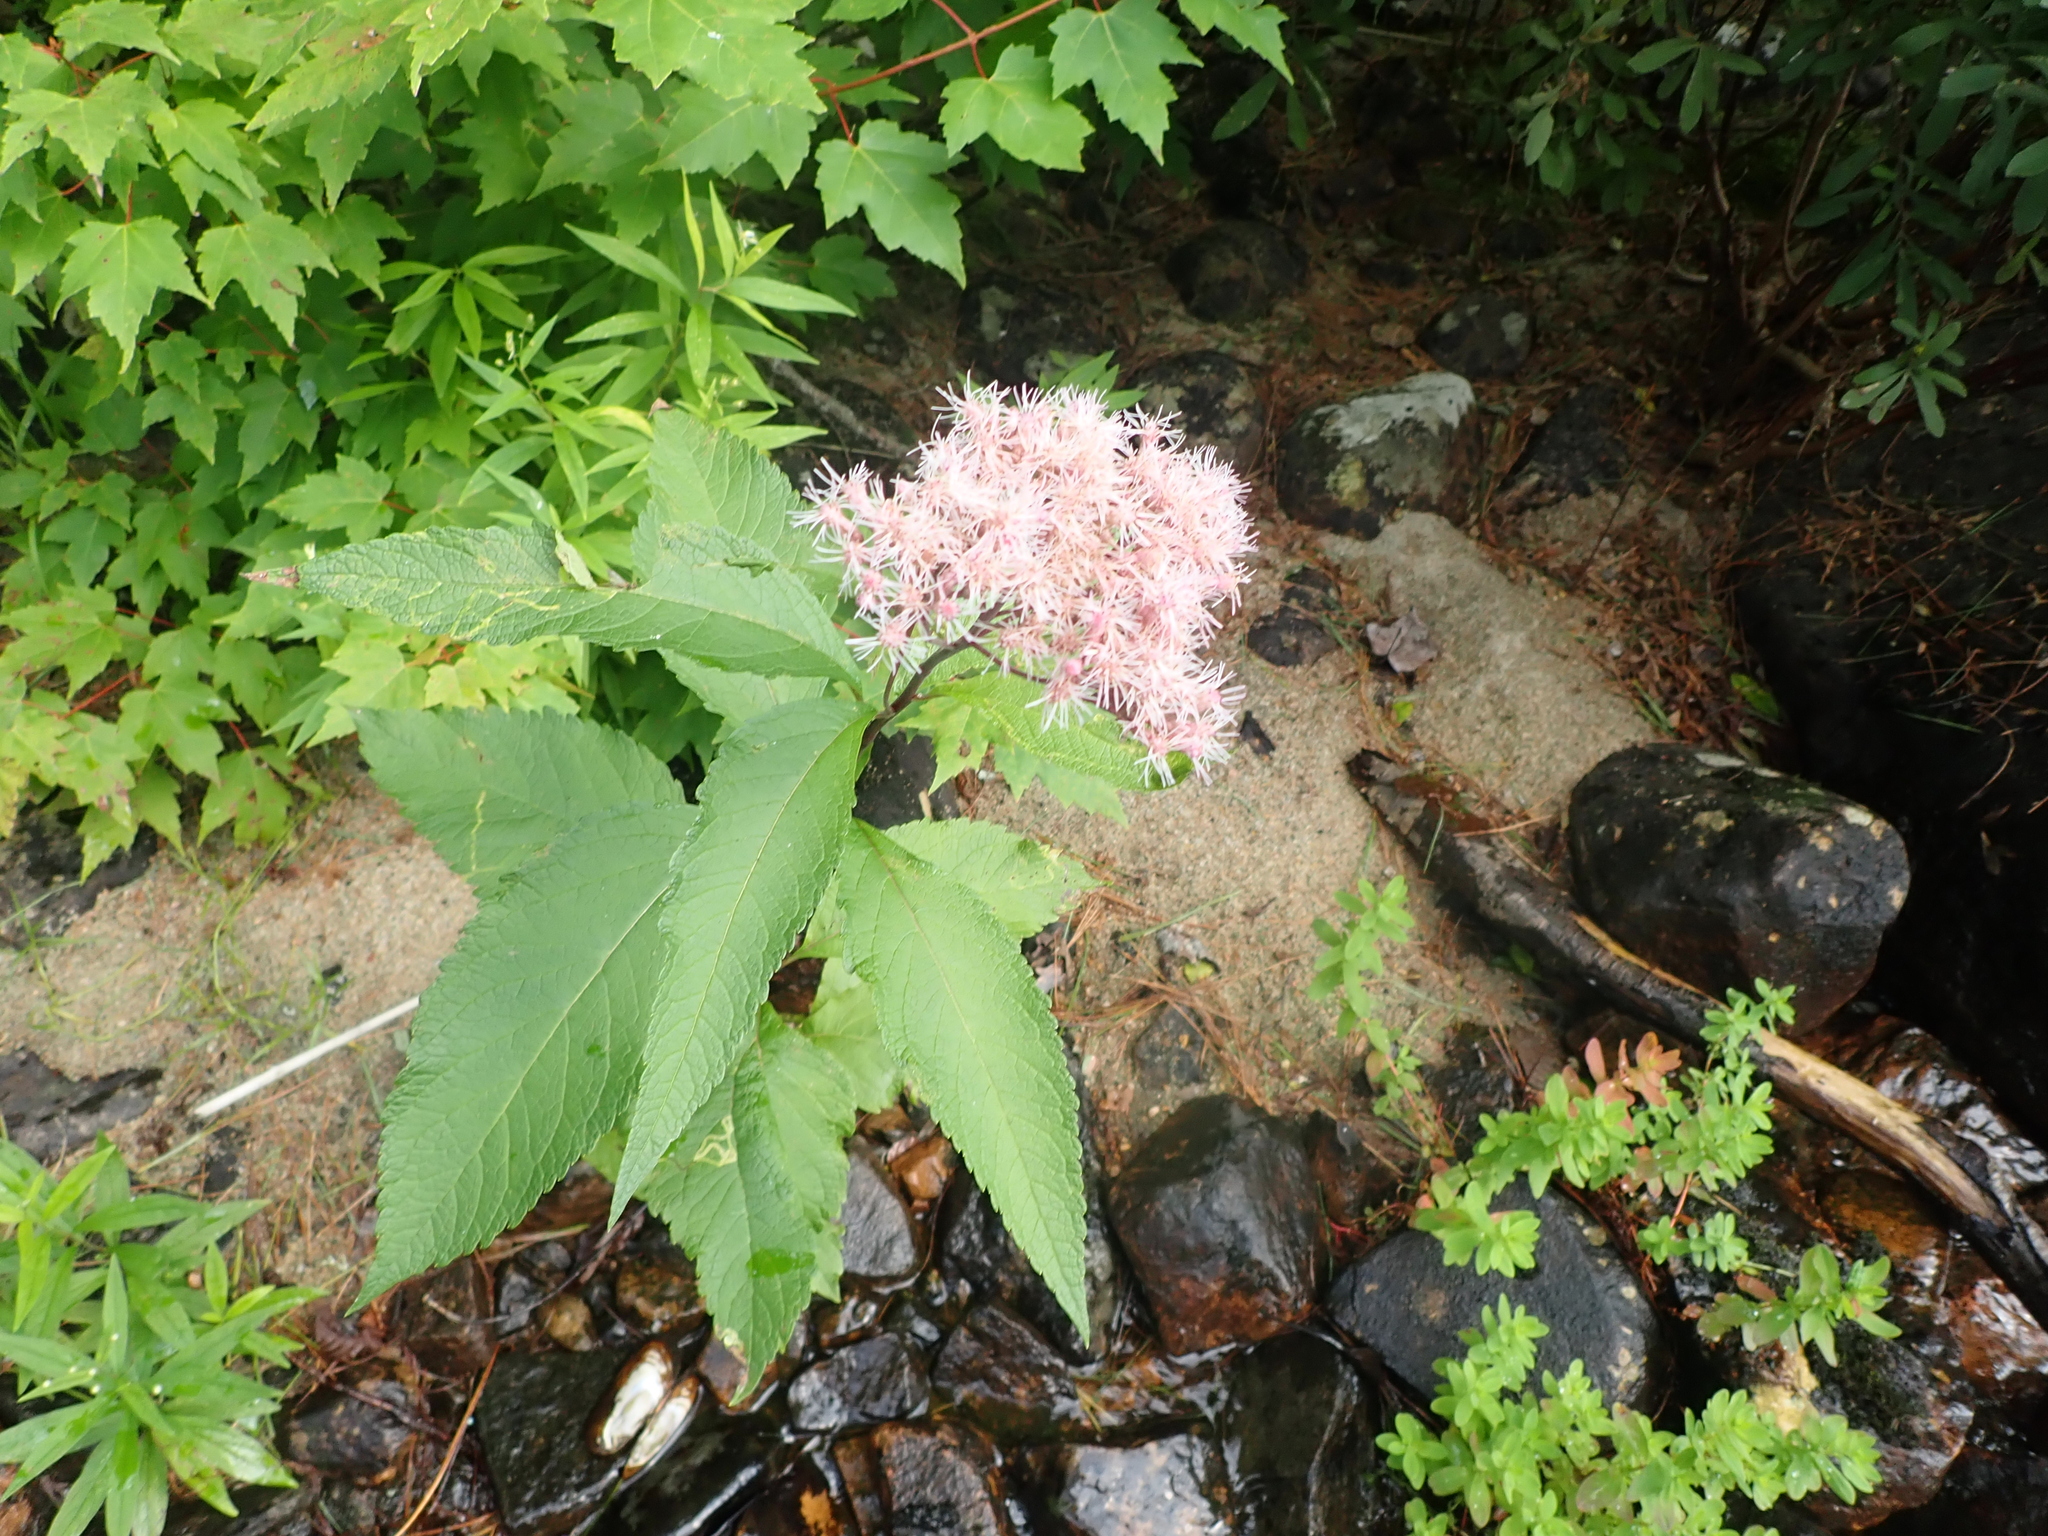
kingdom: Plantae
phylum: Tracheophyta
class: Magnoliopsida
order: Asterales
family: Asteraceae
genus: Eutrochium
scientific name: Eutrochium maculatum
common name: Spotted joe pye weed
